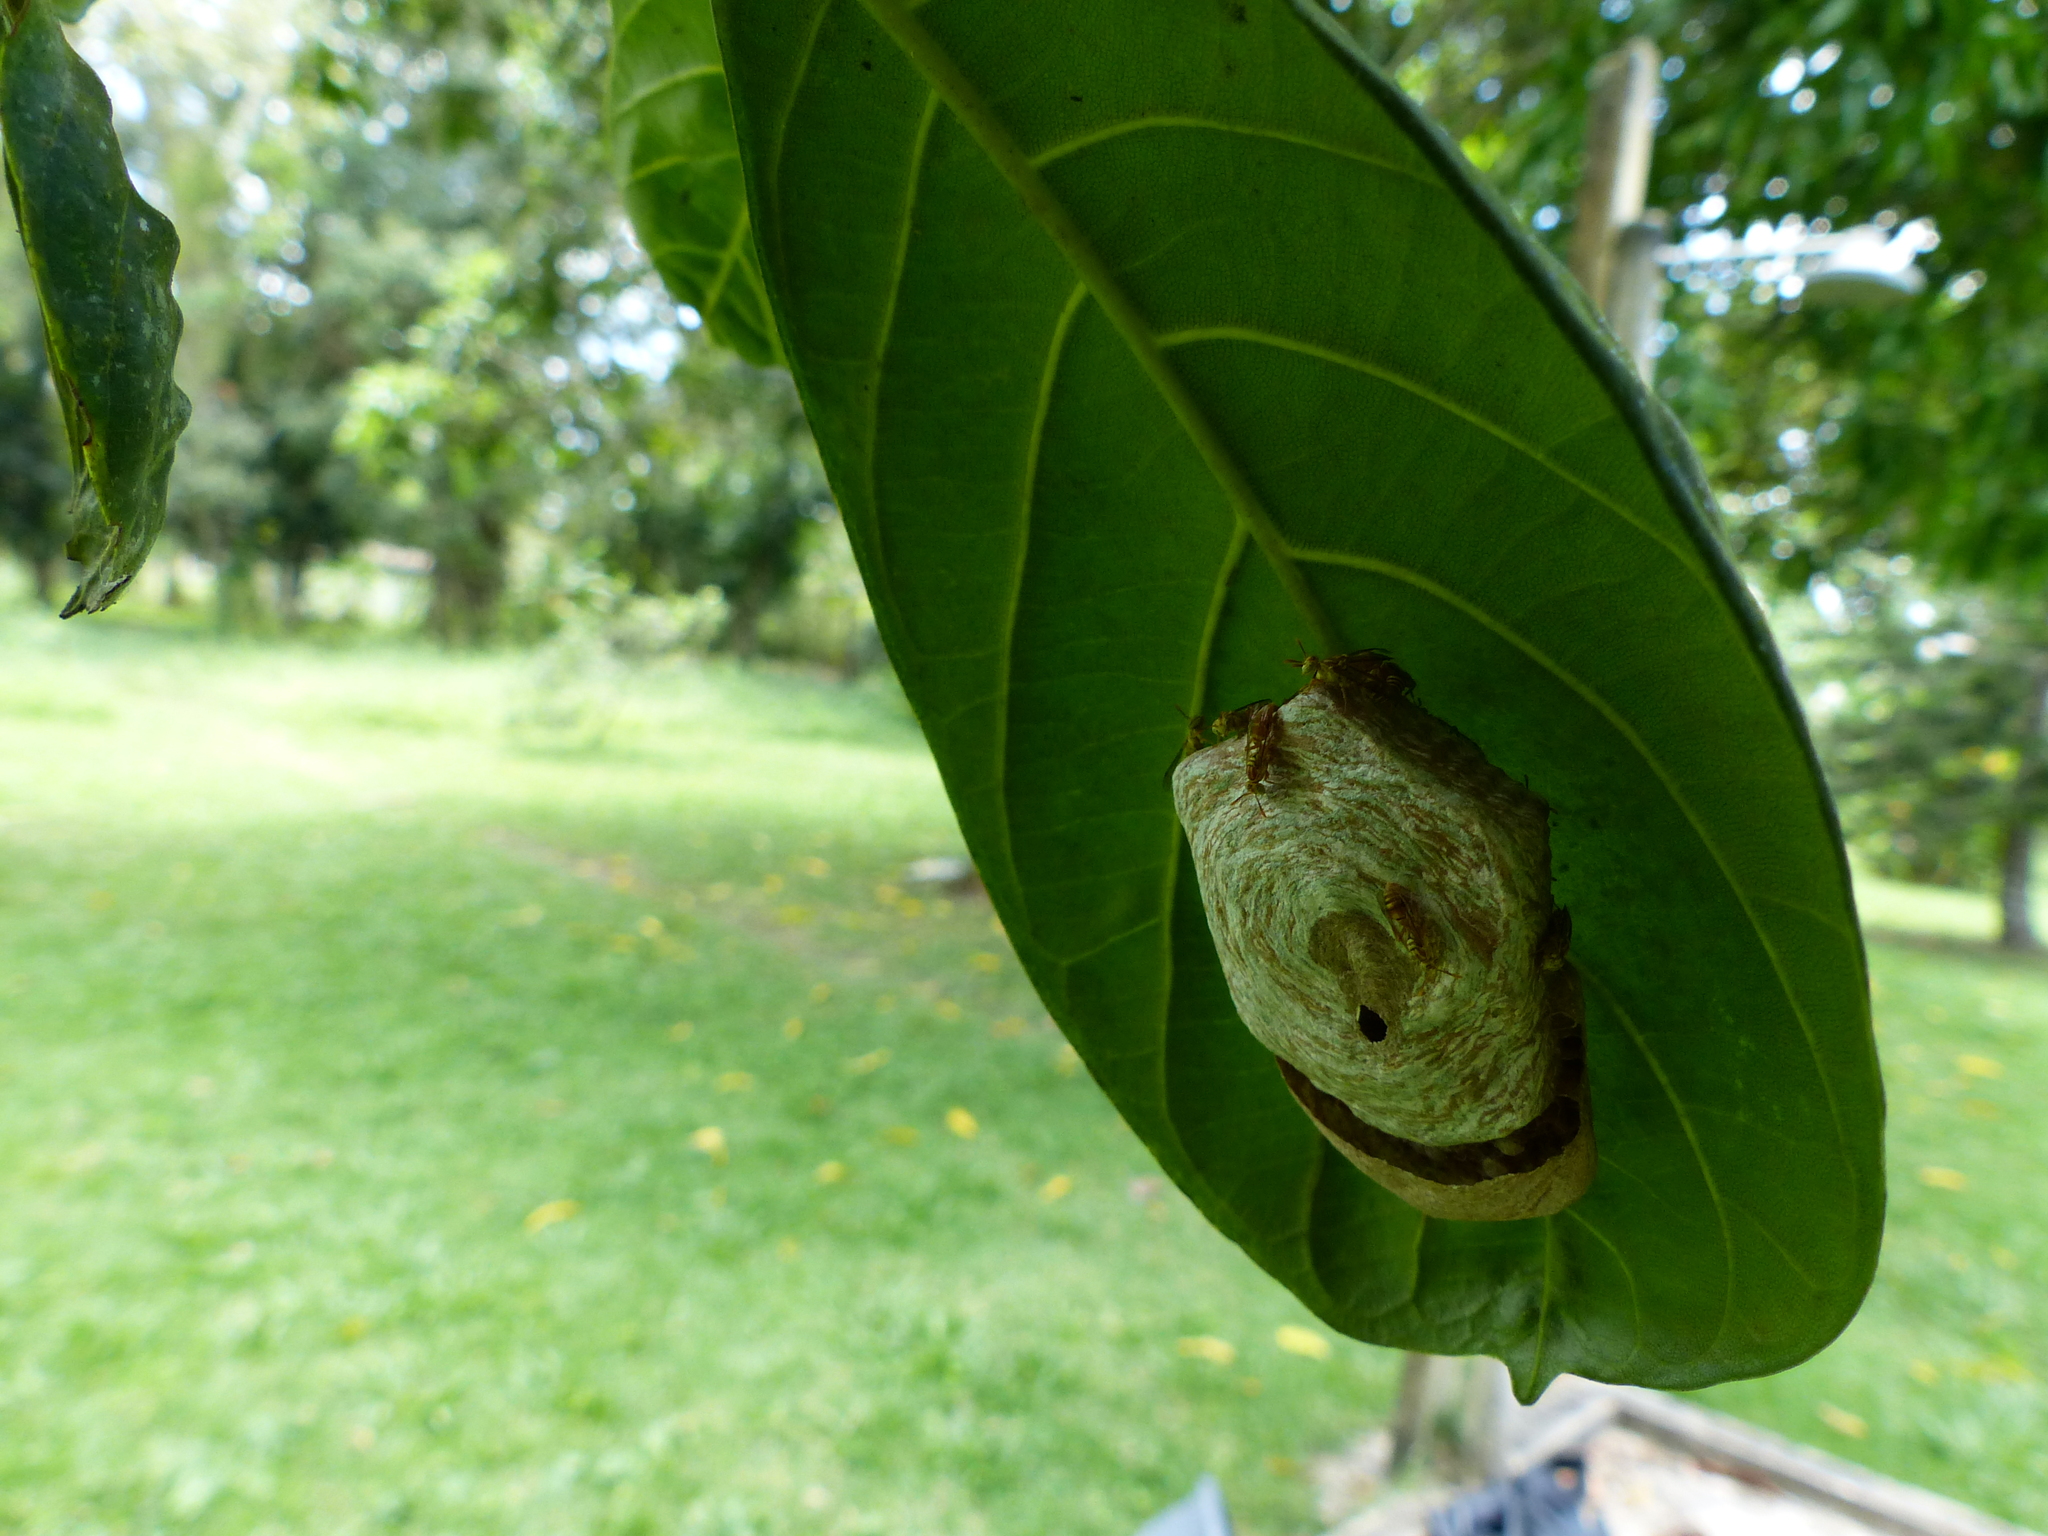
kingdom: Animalia
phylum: Arthropoda
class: Insecta
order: Hymenoptera
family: Vespidae
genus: Protopolybia
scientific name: Protopolybia potiguara
